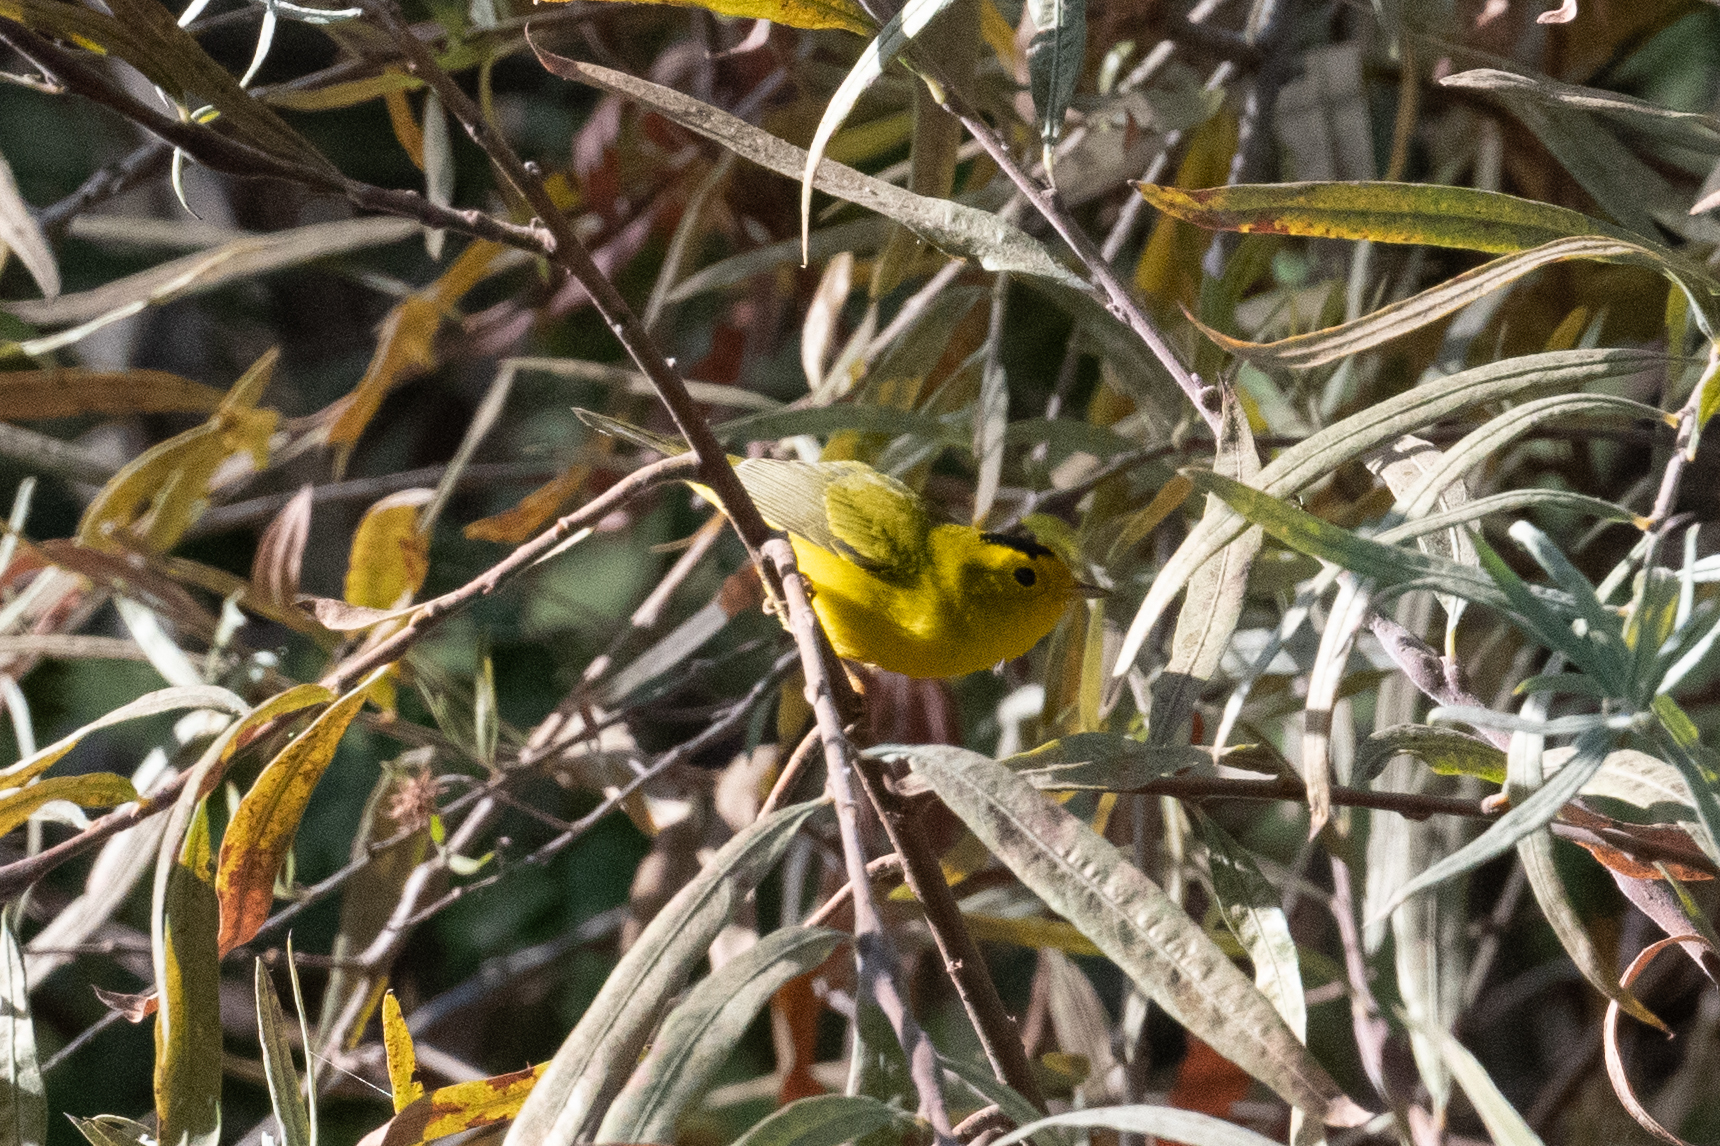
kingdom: Animalia
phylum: Chordata
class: Aves
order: Passeriformes
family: Parulidae
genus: Cardellina
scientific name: Cardellina pusilla
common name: Wilson's warbler
